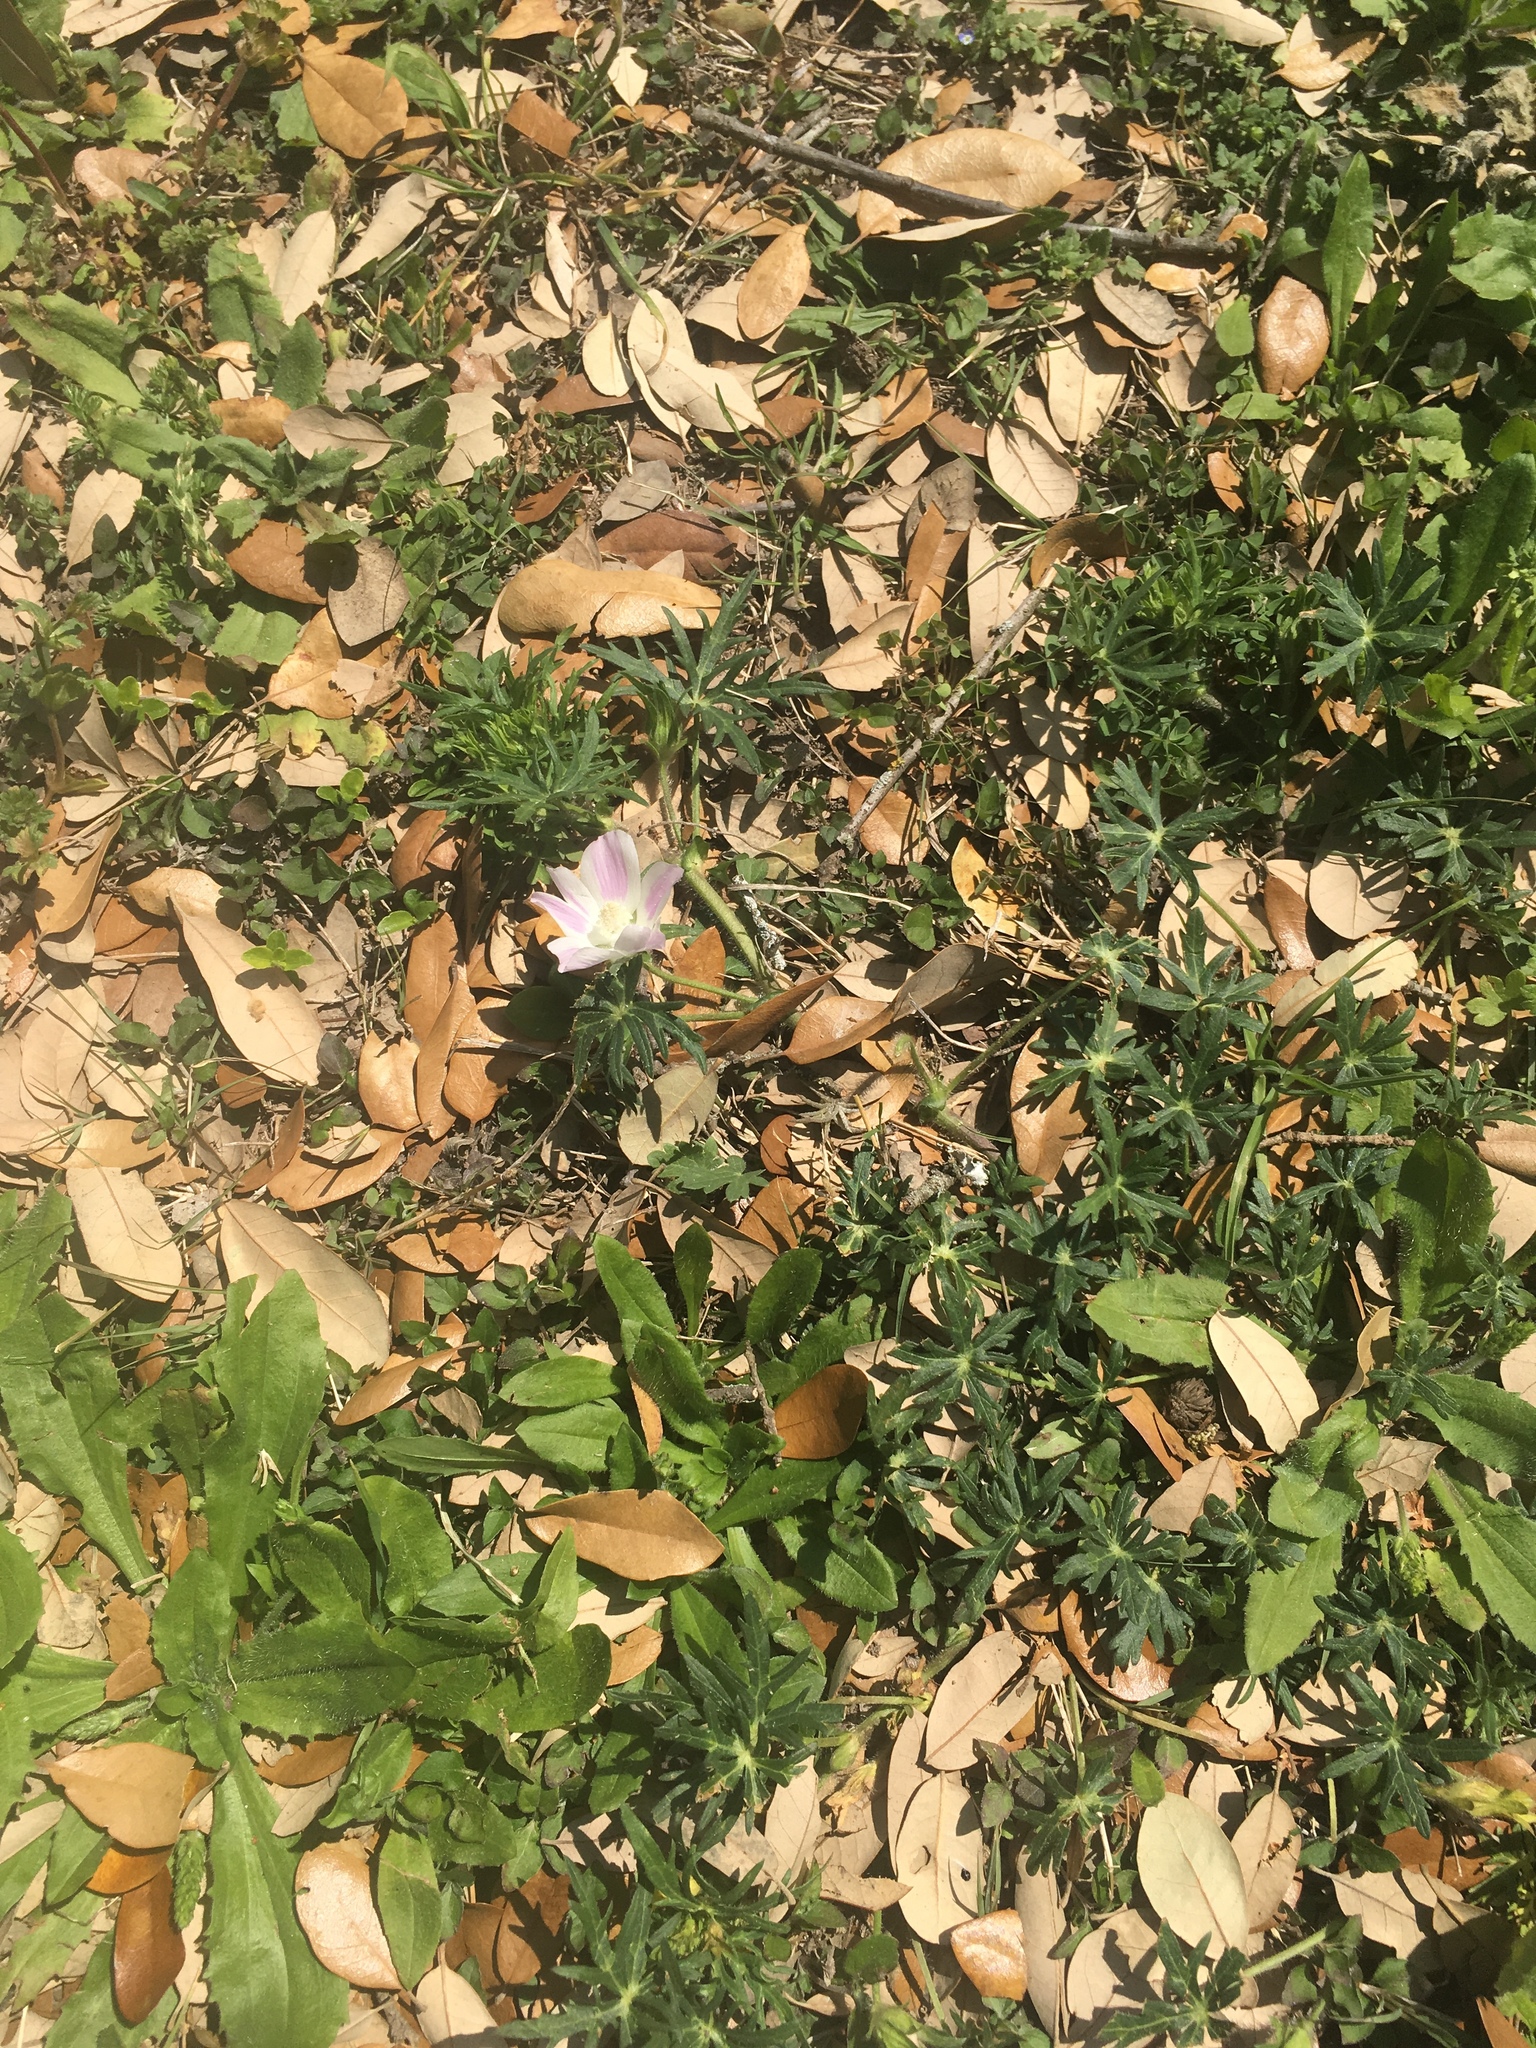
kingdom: Plantae
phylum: Tracheophyta
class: Magnoliopsida
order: Malvales
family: Malvaceae
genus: Callirhoe
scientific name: Callirhoe involucrata
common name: Purple poppy-mallow
